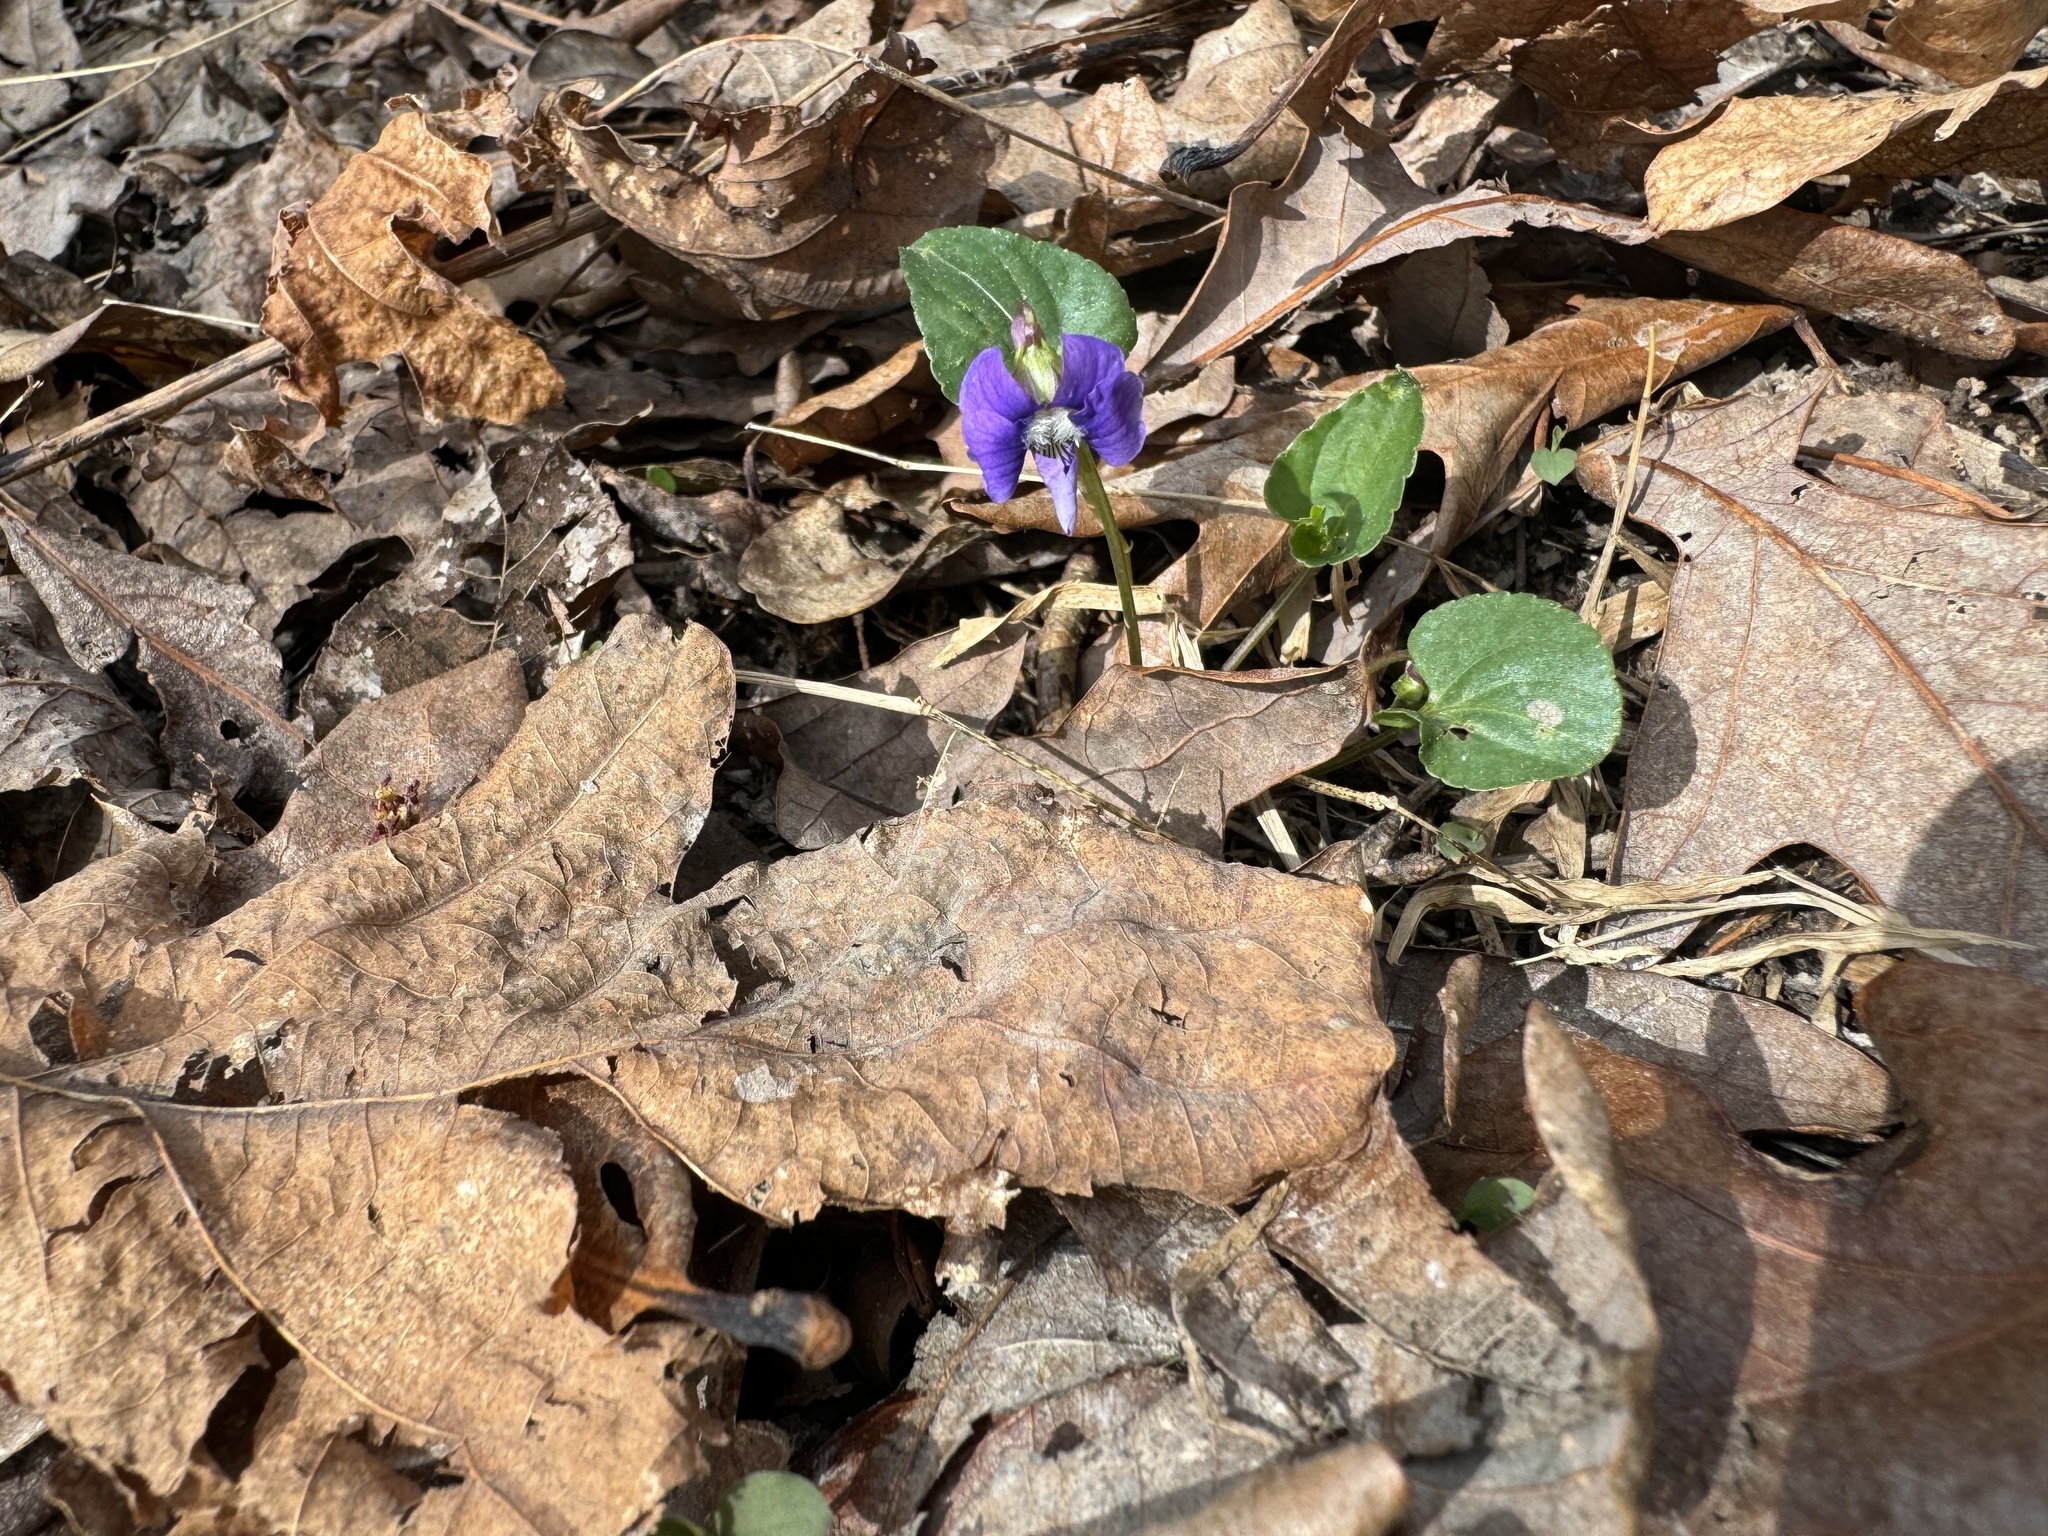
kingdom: Plantae
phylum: Tracheophyta
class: Magnoliopsida
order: Malpighiales
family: Violaceae
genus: Viola
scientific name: Viola sororia
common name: Dooryard violet
